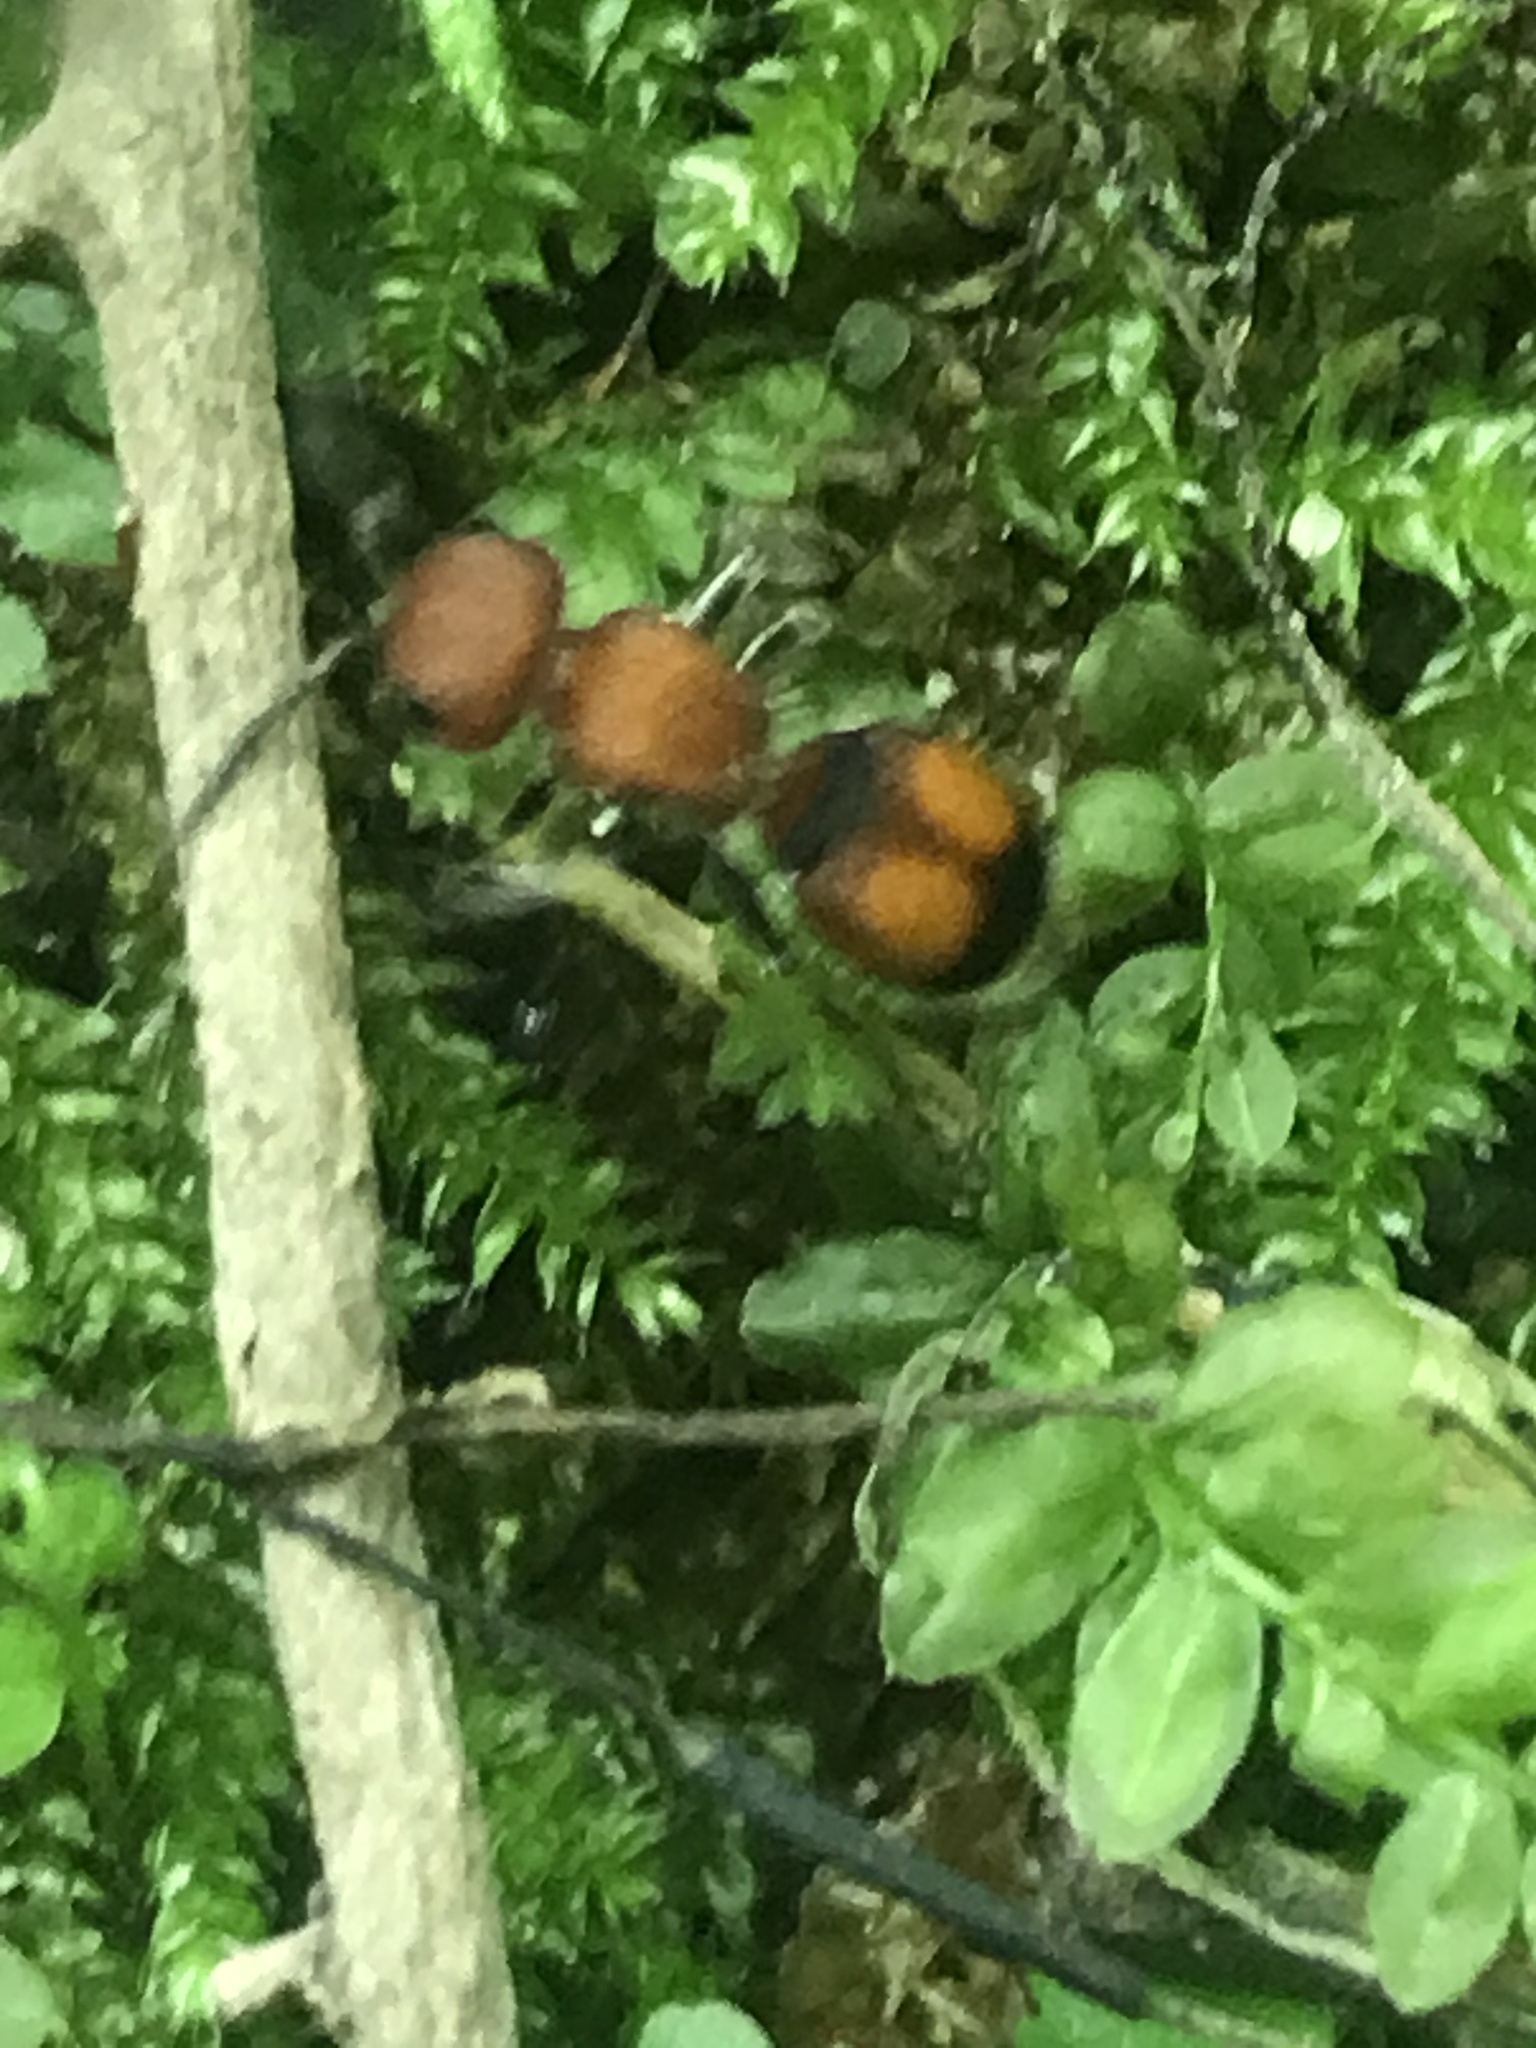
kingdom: Animalia
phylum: Arthropoda
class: Insecta
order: Hymenoptera
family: Mutillidae
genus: Pseudomethoca
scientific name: Pseudomethoca
